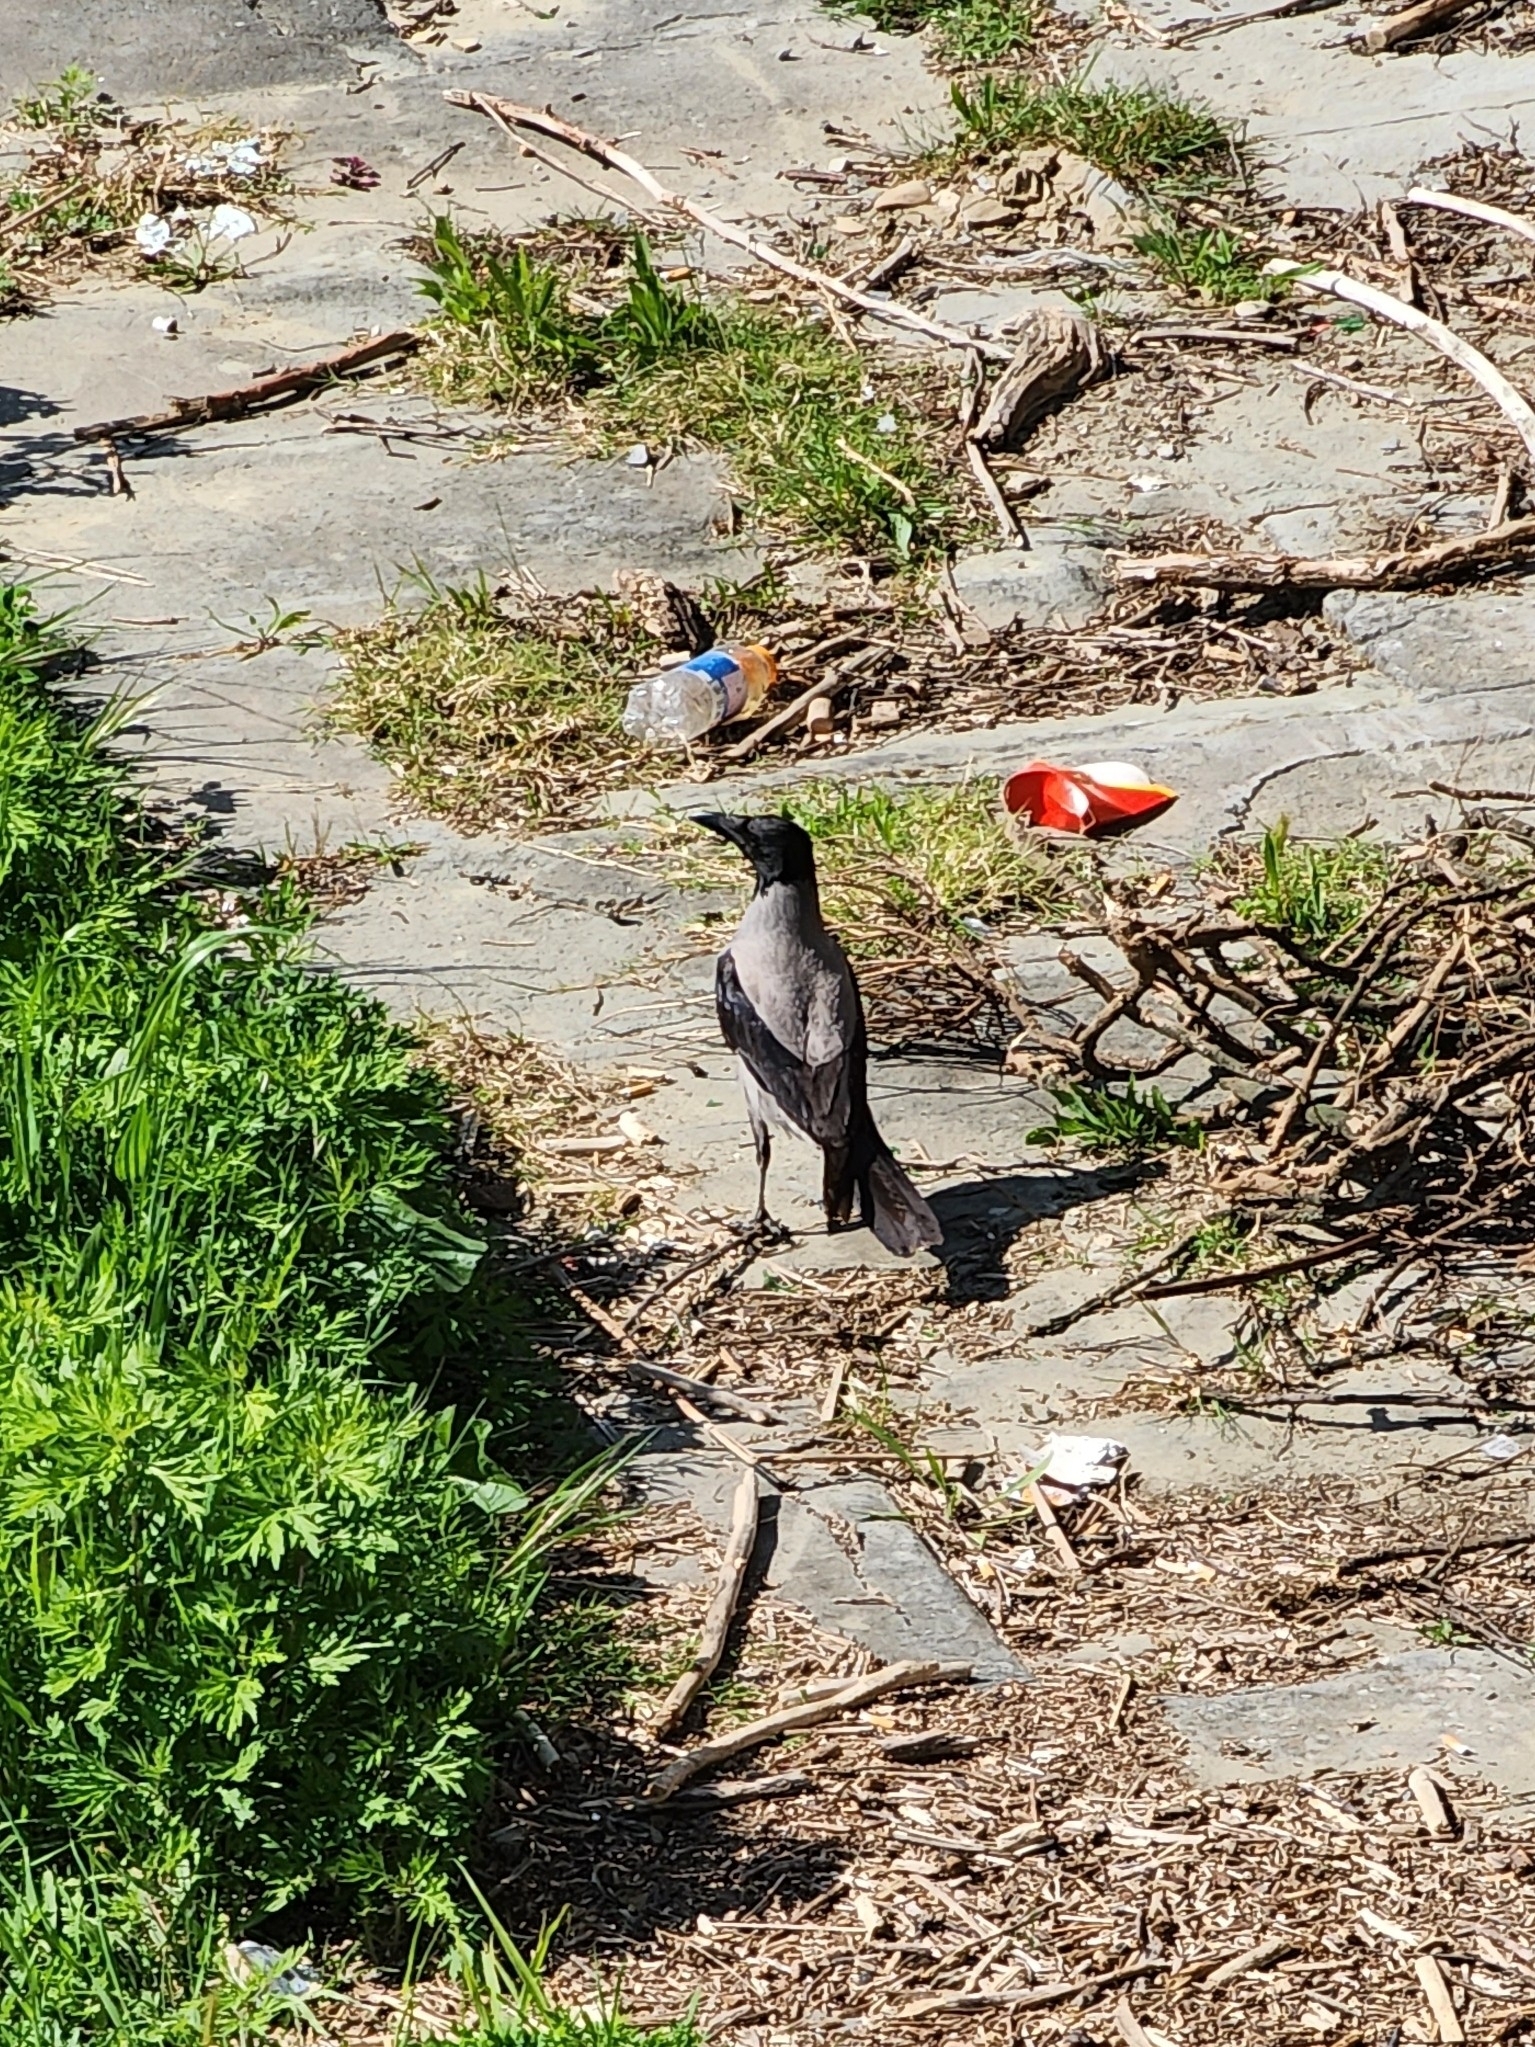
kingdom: Animalia
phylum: Chordata
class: Aves
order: Passeriformes
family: Corvidae
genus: Corvus
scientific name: Corvus cornix
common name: Hooded crow
